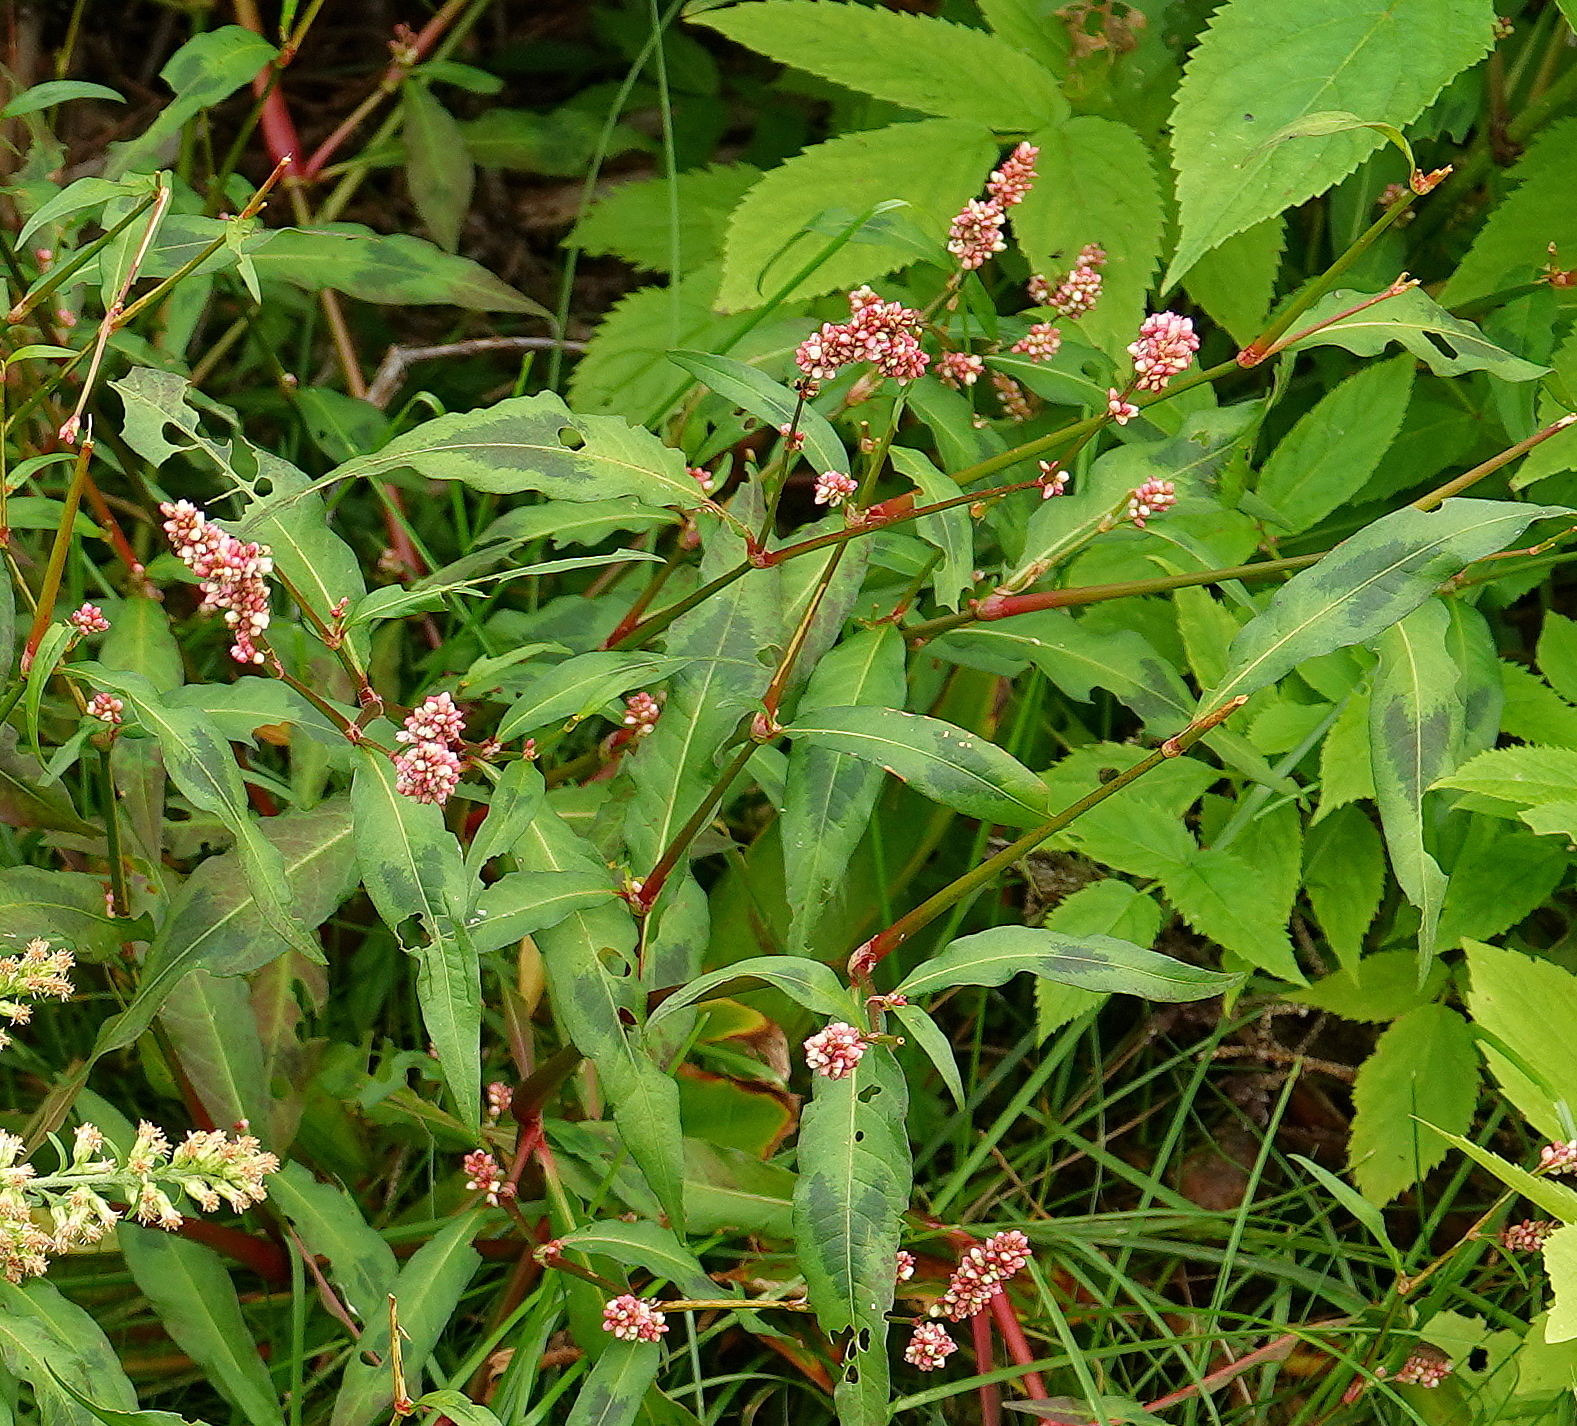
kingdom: Plantae
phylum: Tracheophyta
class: Magnoliopsida
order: Caryophyllales
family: Polygonaceae
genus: Persicaria
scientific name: Persicaria maculosa
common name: Redshank
